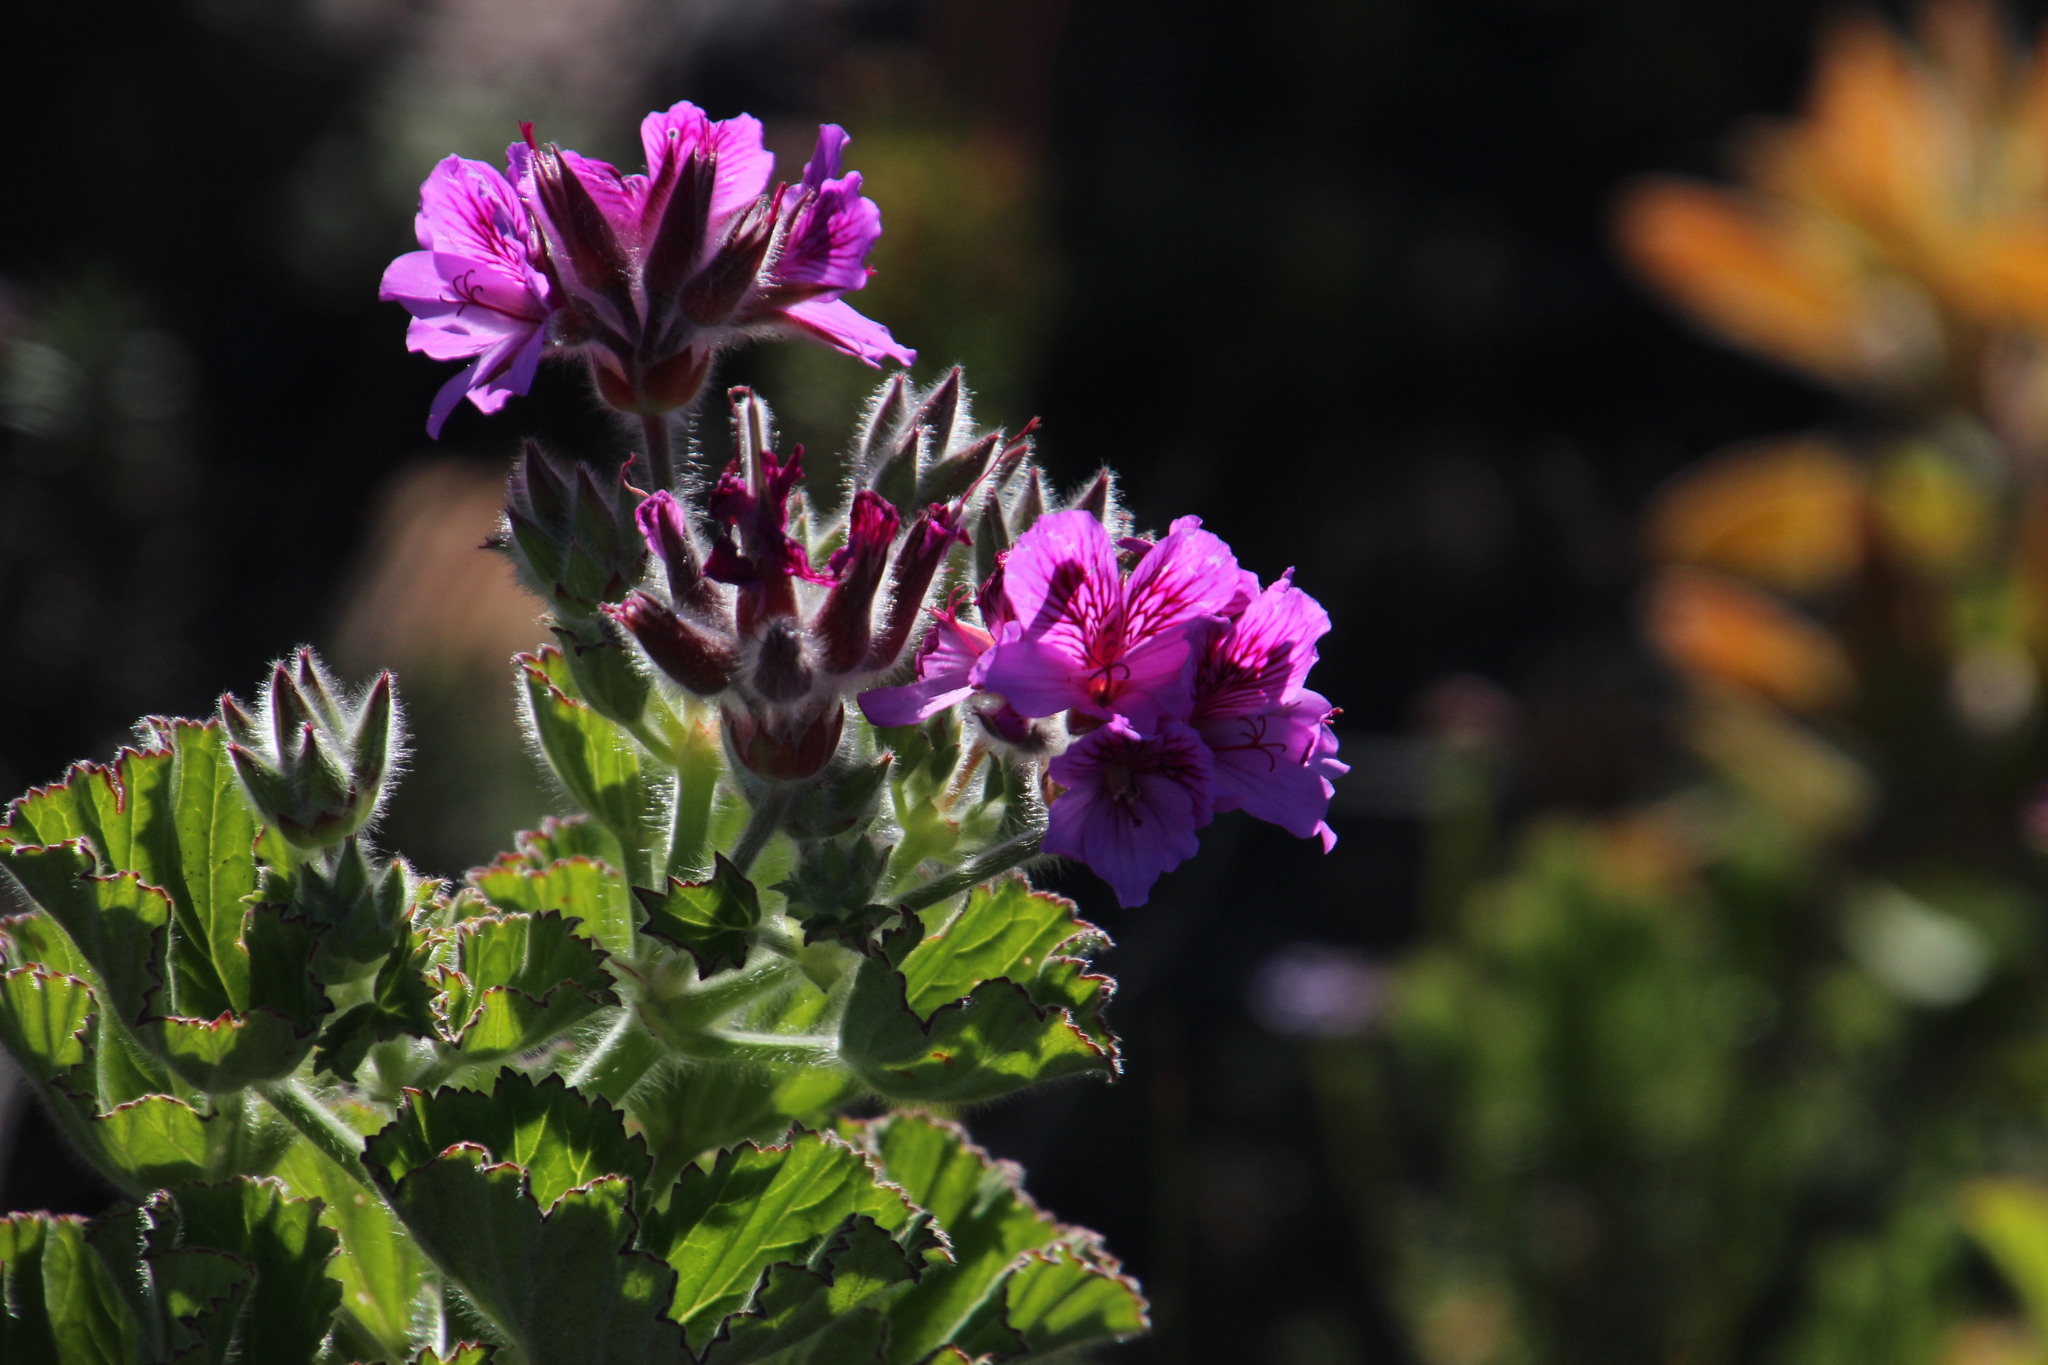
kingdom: Plantae
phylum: Tracheophyta
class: Magnoliopsida
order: Geraniales
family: Geraniaceae
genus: Pelargonium
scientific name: Pelargonium cucullatum
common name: Tree pelargonium
